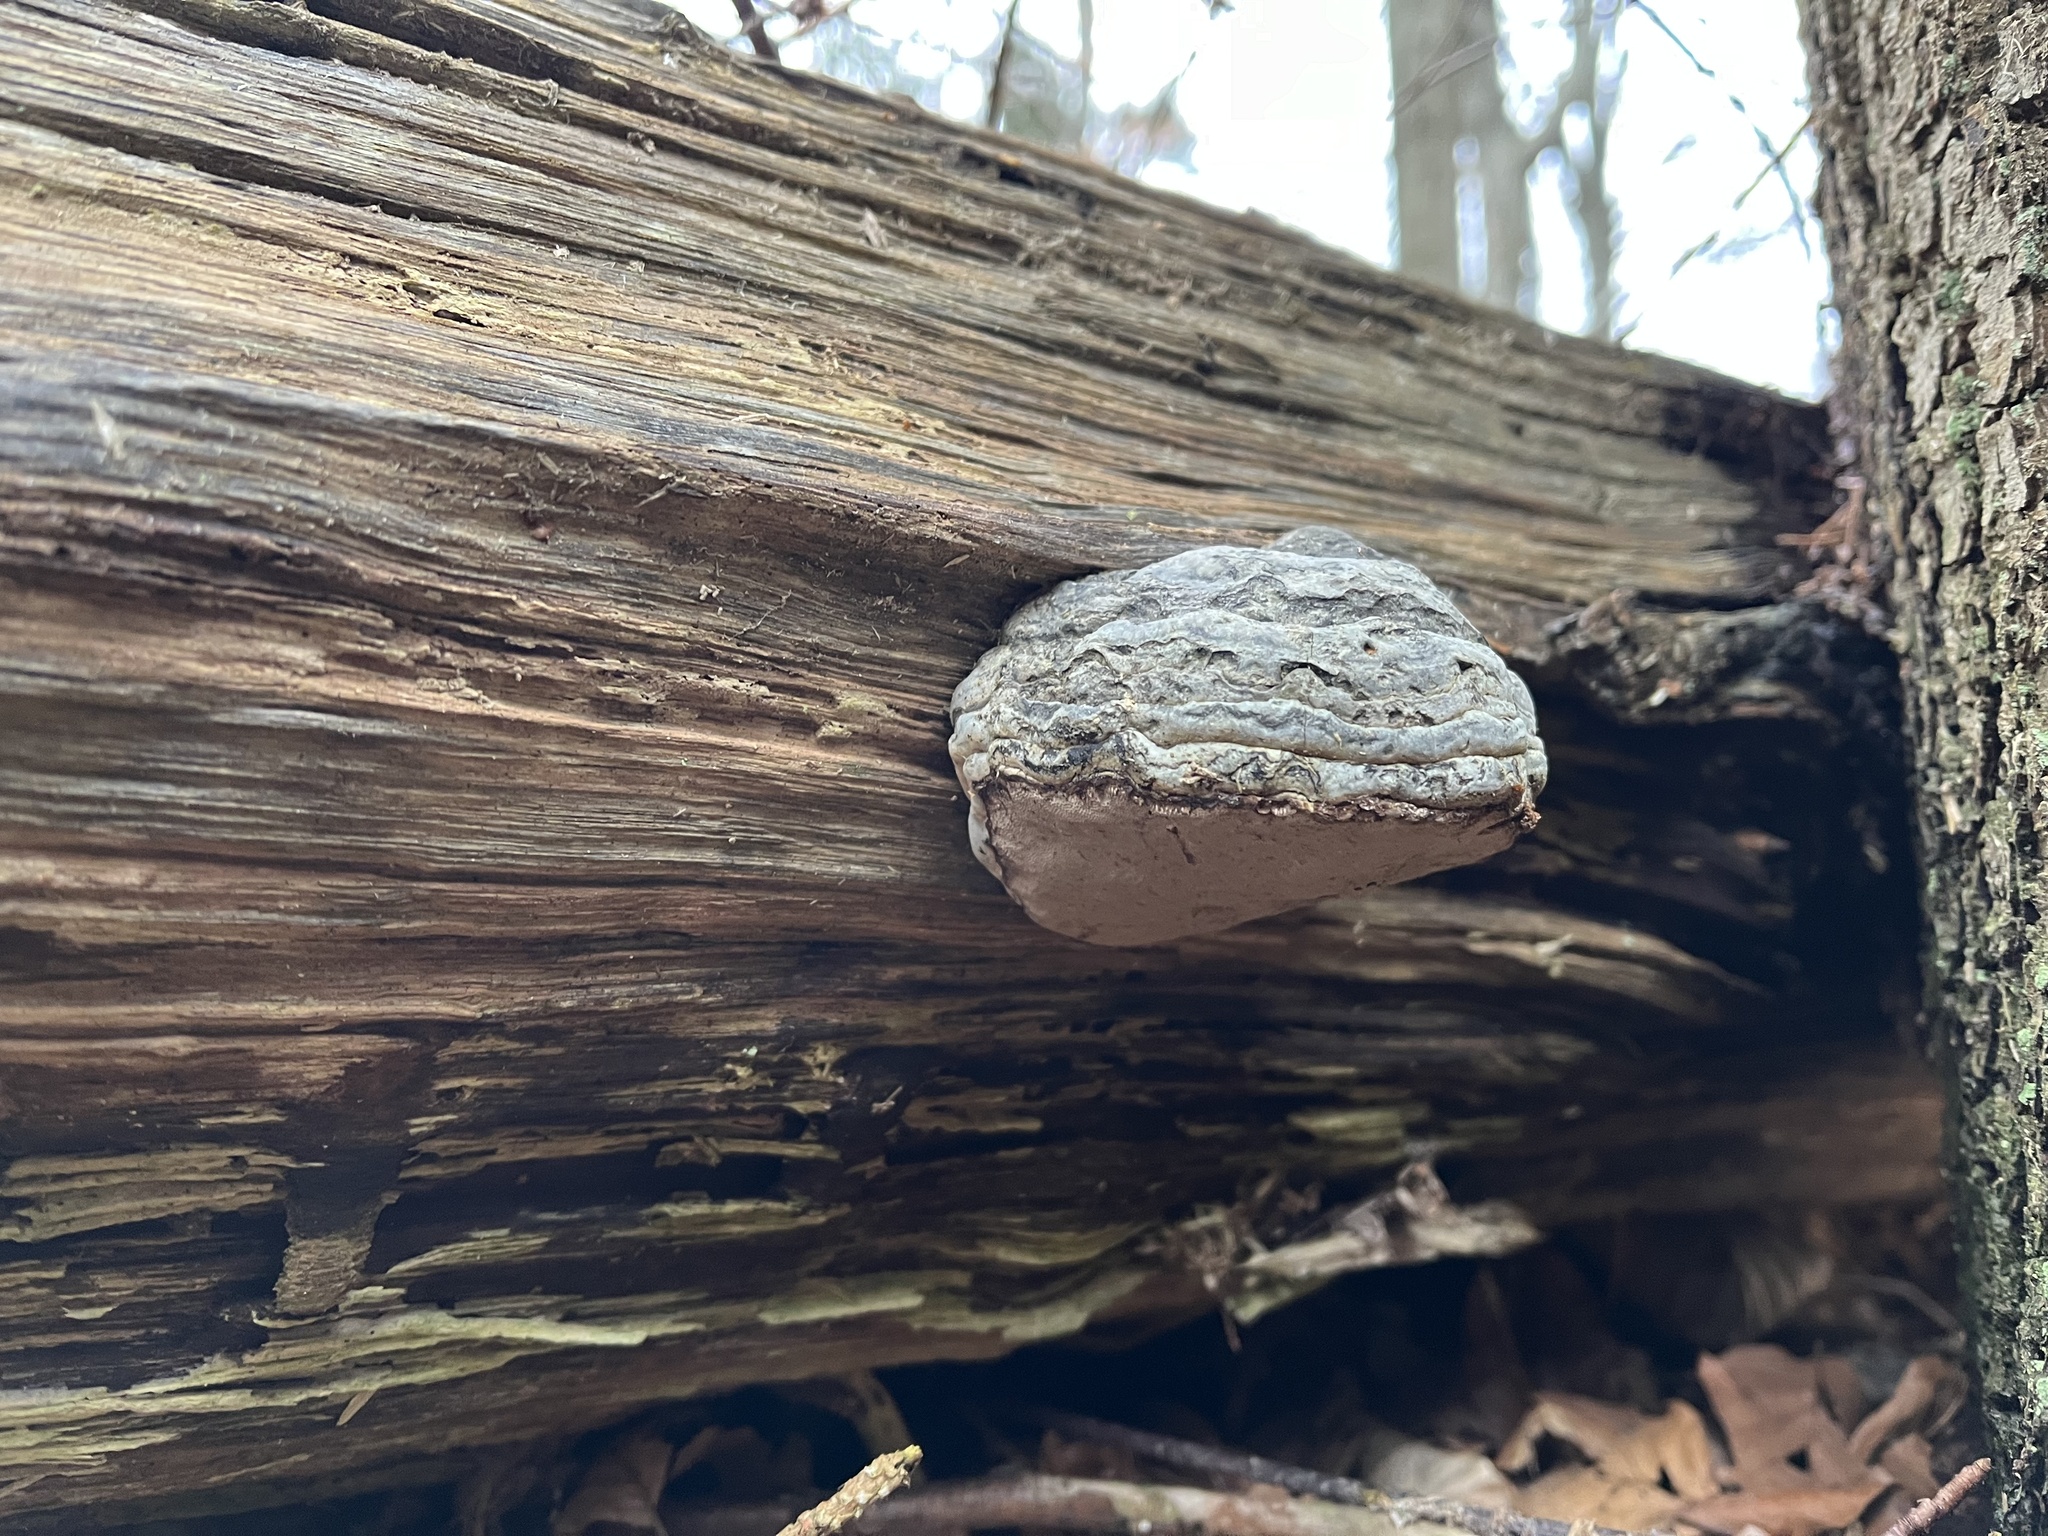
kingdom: Fungi
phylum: Basidiomycota
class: Agaricomycetes
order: Polyporales
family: Polyporaceae
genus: Fomes
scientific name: Fomes fomentarius
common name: Hoof fungus
